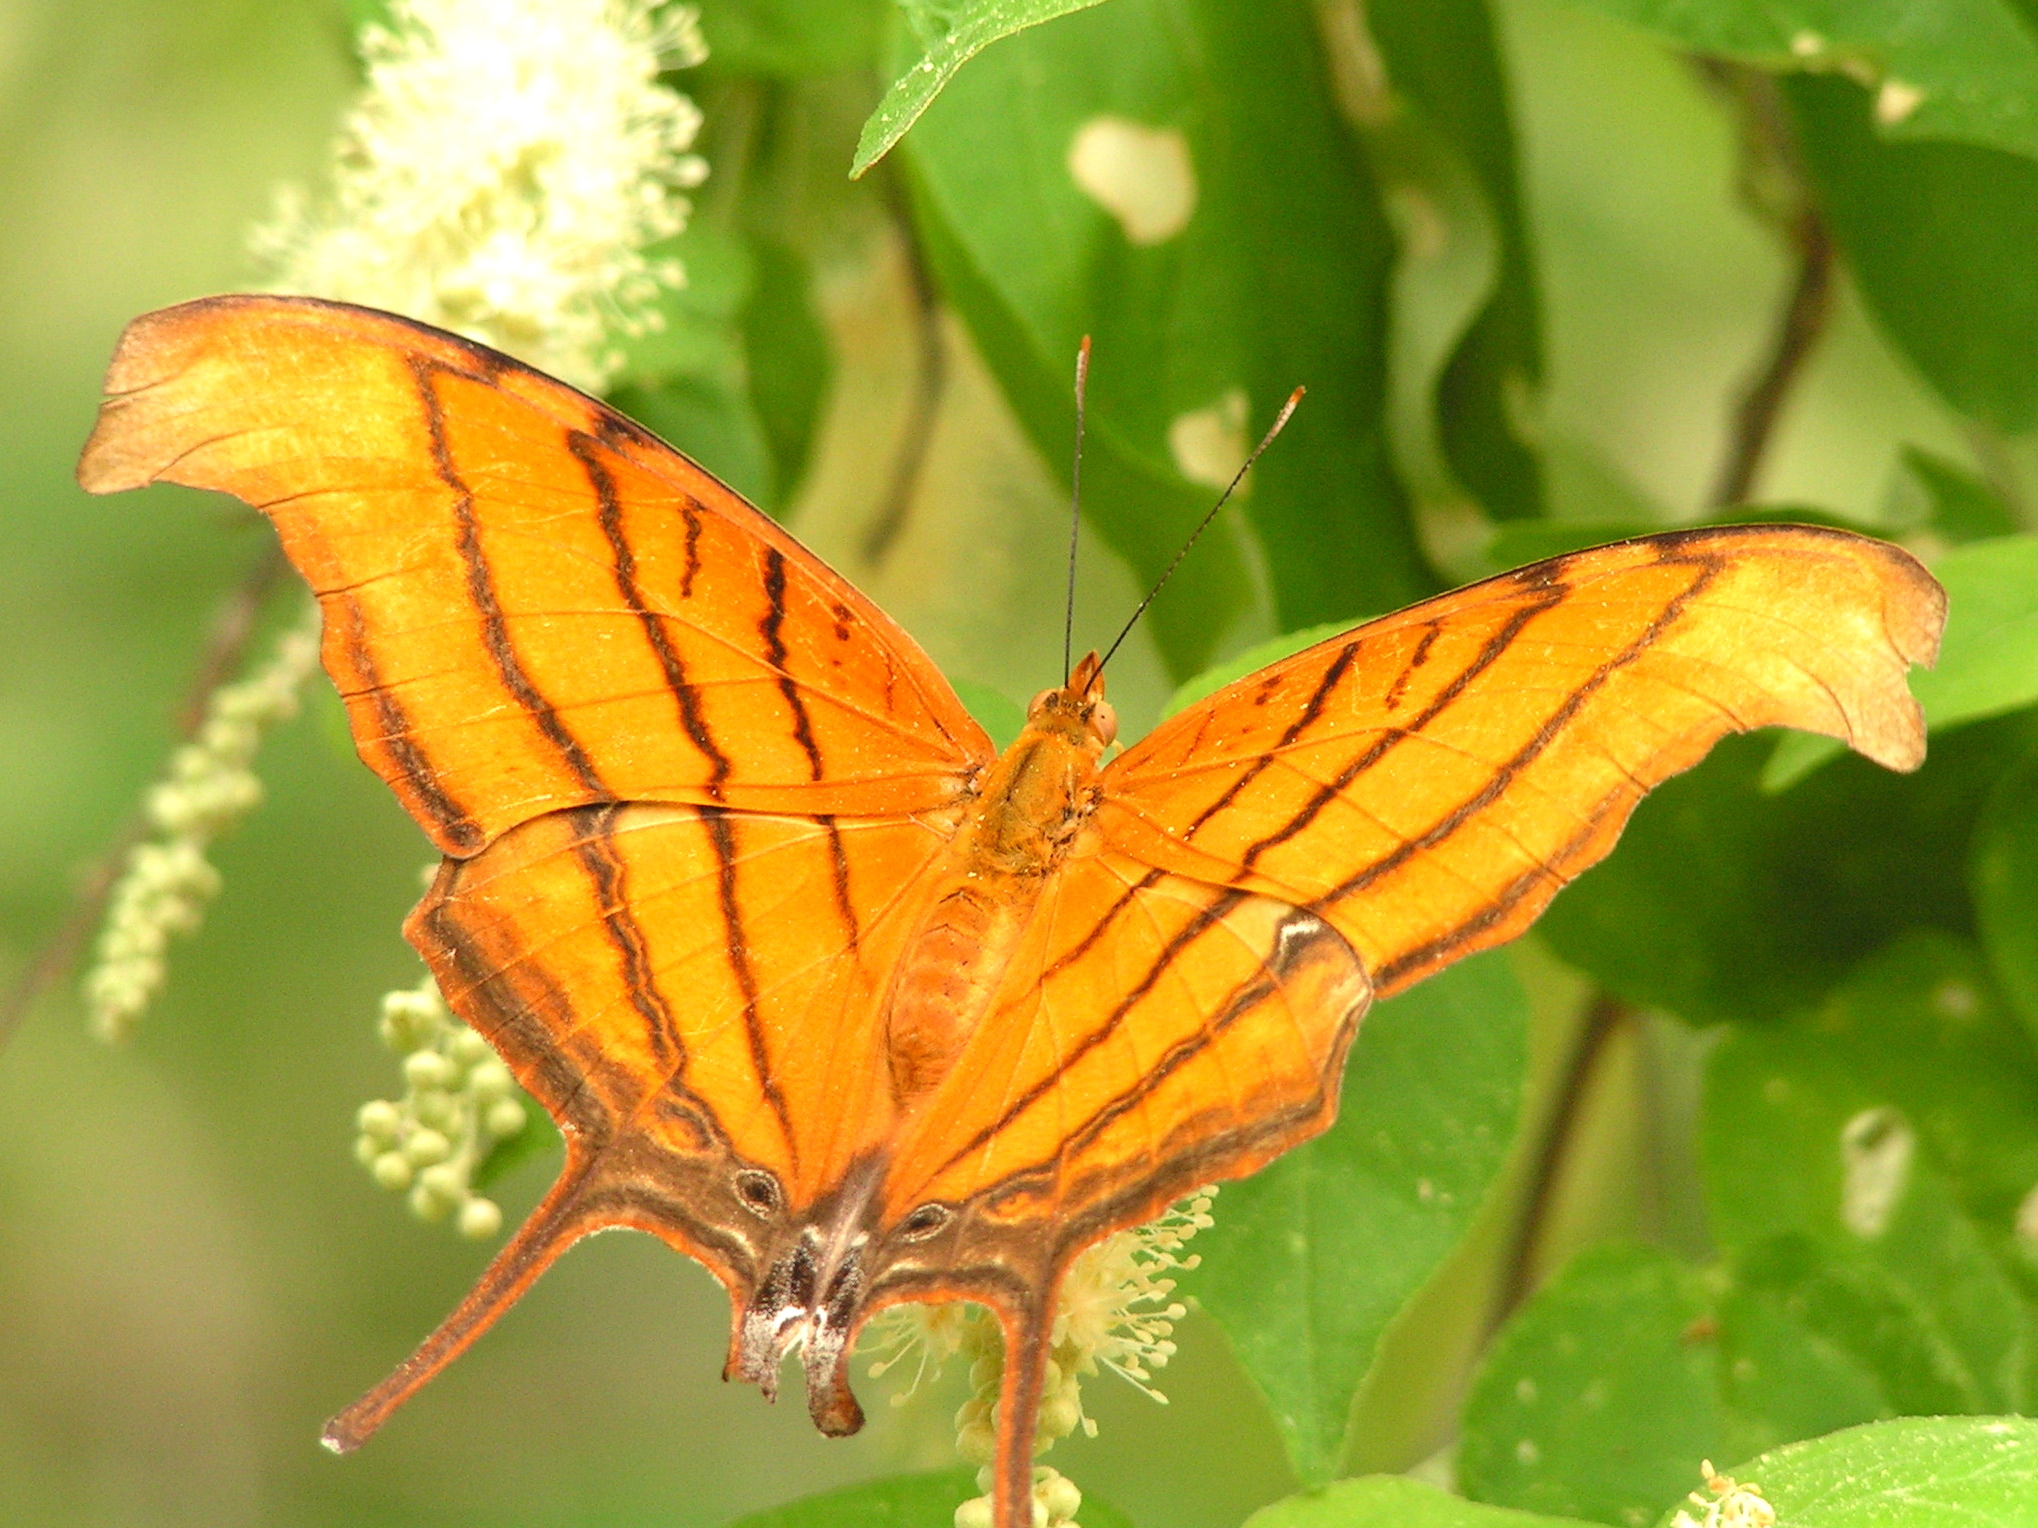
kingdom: Animalia
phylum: Arthropoda
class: Insecta
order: Lepidoptera
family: Nymphalidae
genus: Marpesia
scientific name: Marpesia petreus
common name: Red dagger wing
